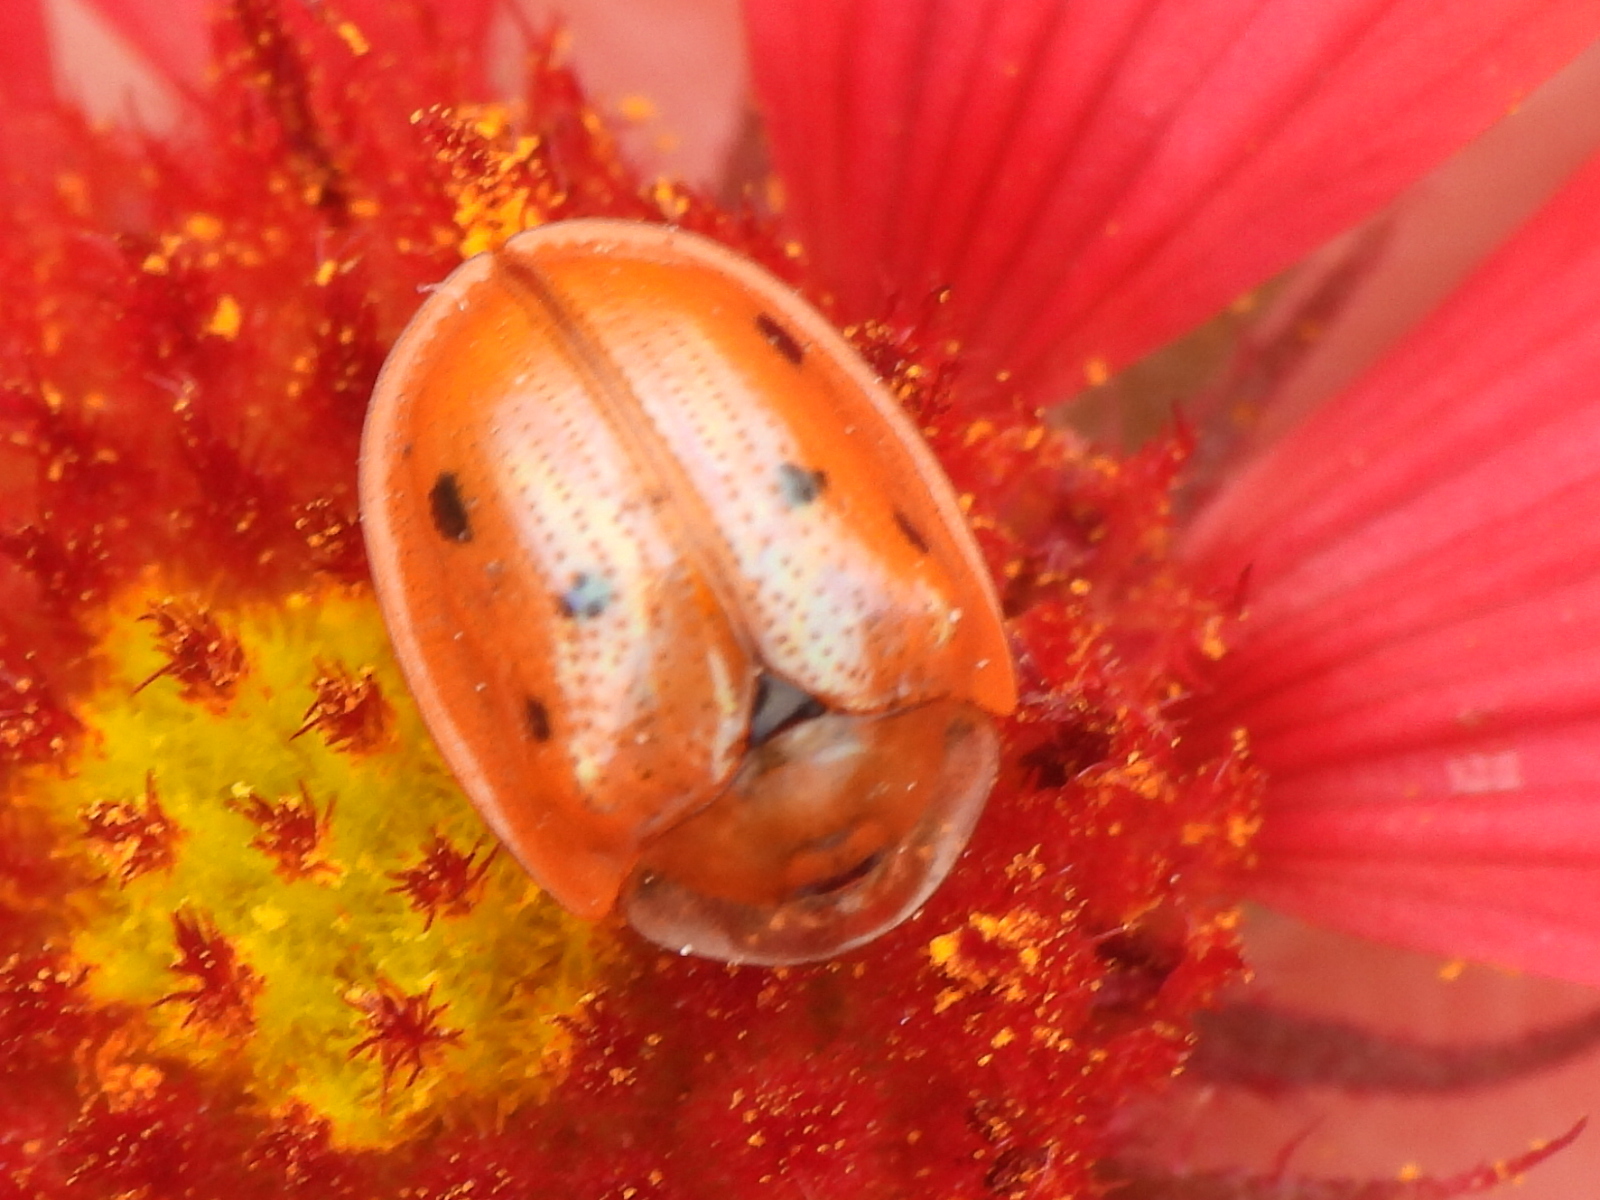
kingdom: Animalia
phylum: Arthropoda
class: Insecta
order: Coleoptera
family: Chrysomelidae
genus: Jonthonota
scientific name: Jonthonota nigripes
